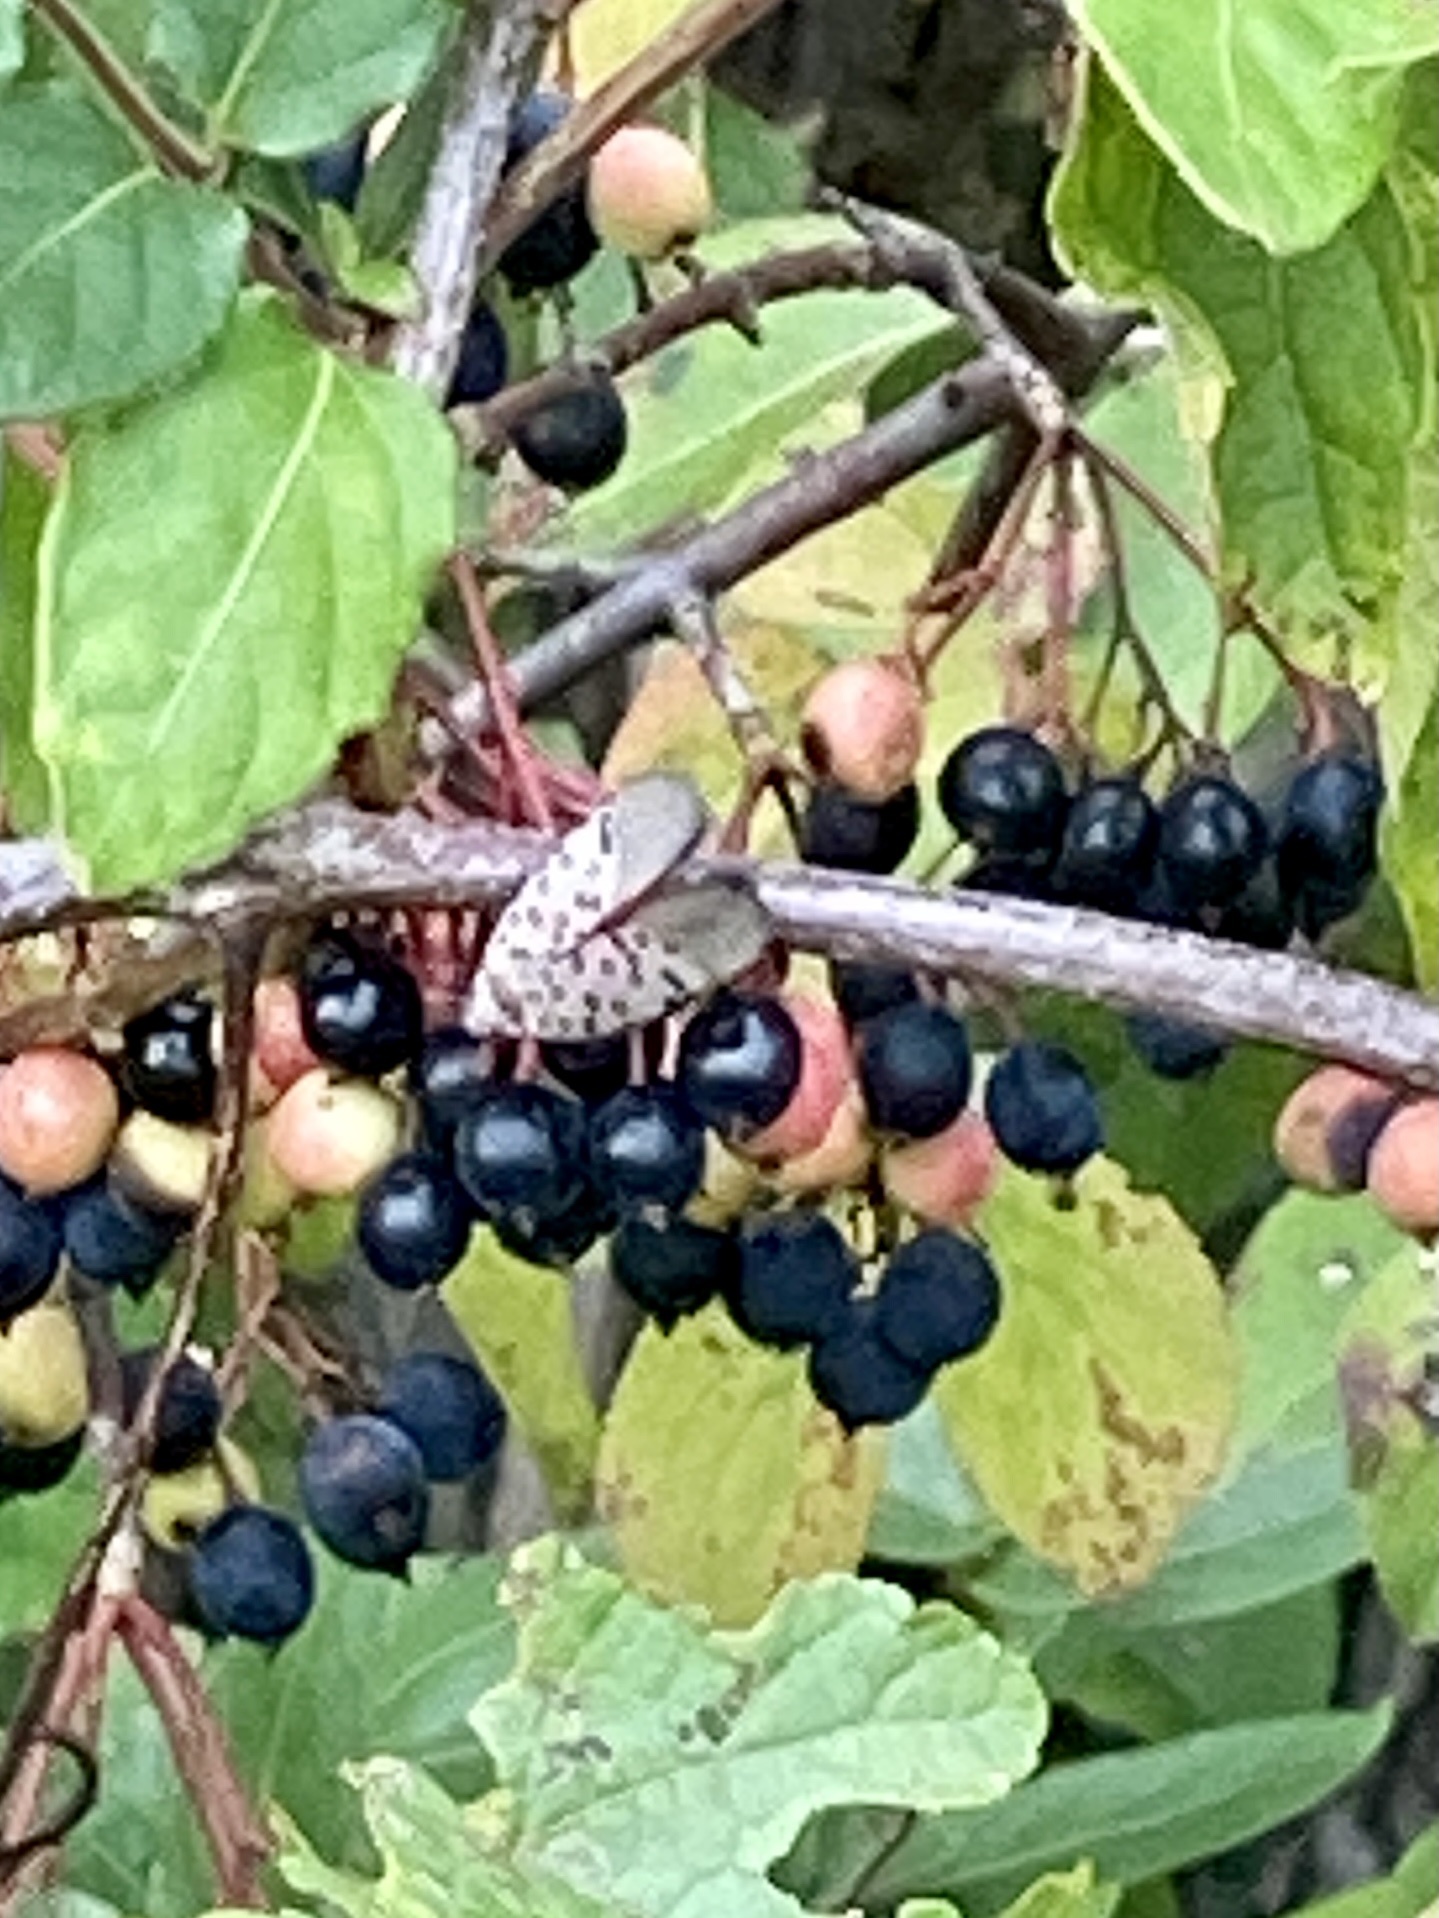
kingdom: Animalia
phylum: Arthropoda
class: Insecta
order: Hemiptera
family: Fulgoridae
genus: Lycorma
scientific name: Lycorma delicatula
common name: Spotted lanternfly
